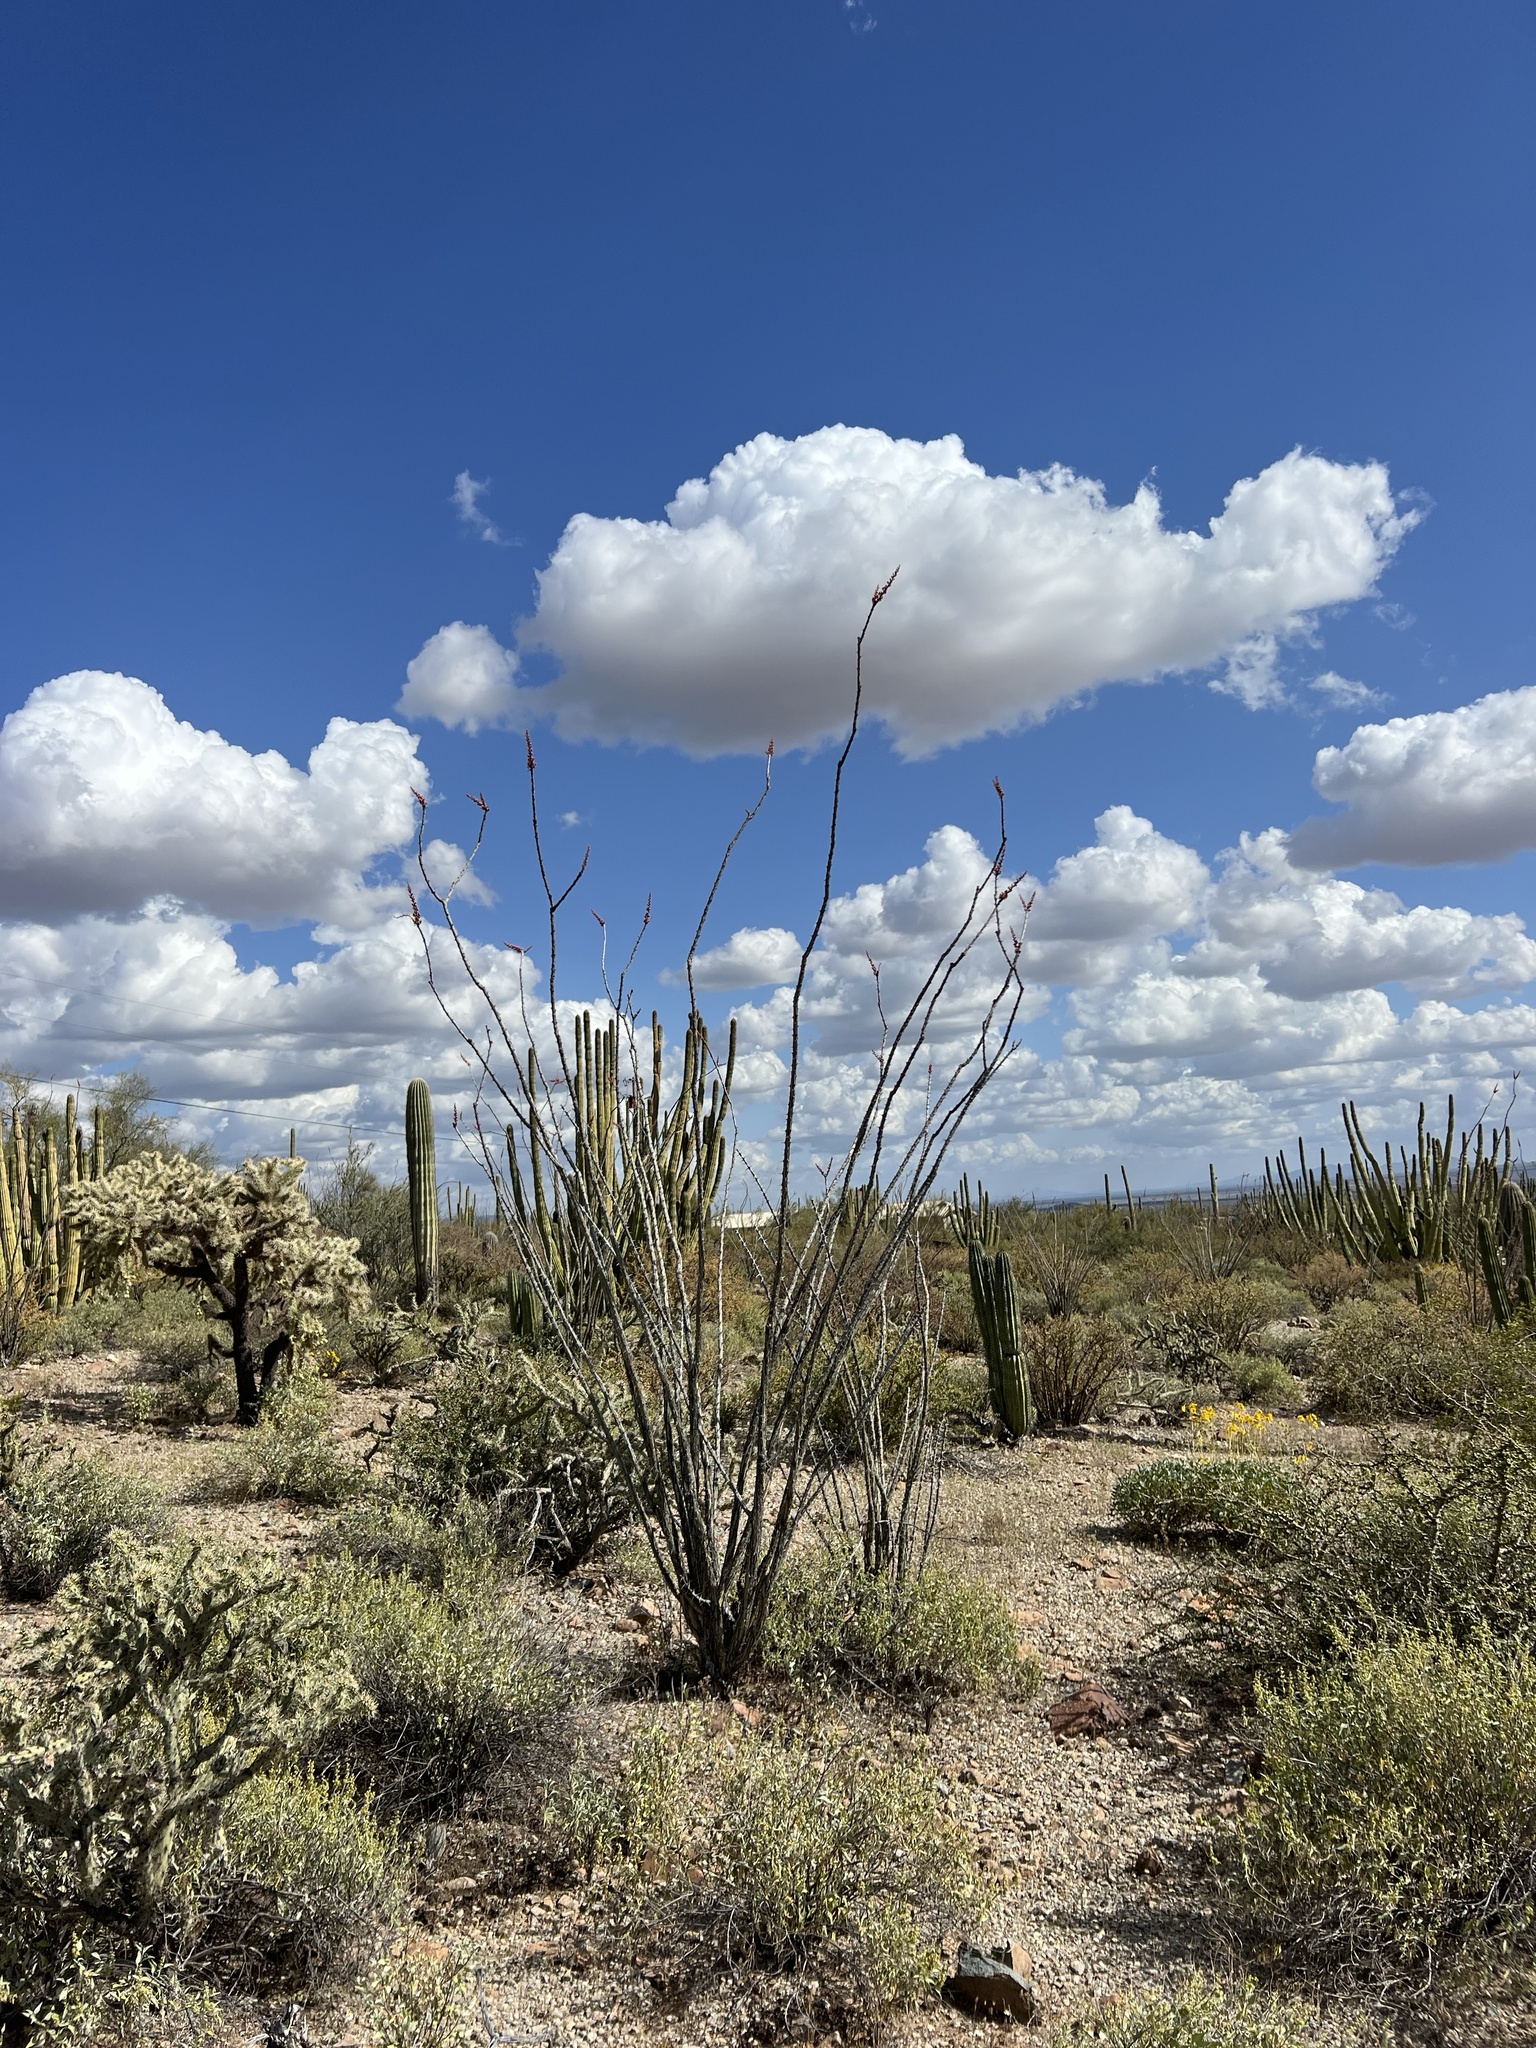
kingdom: Plantae
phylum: Tracheophyta
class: Magnoliopsida
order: Ericales
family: Fouquieriaceae
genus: Fouquieria
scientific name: Fouquieria splendens
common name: Vine-cactus
